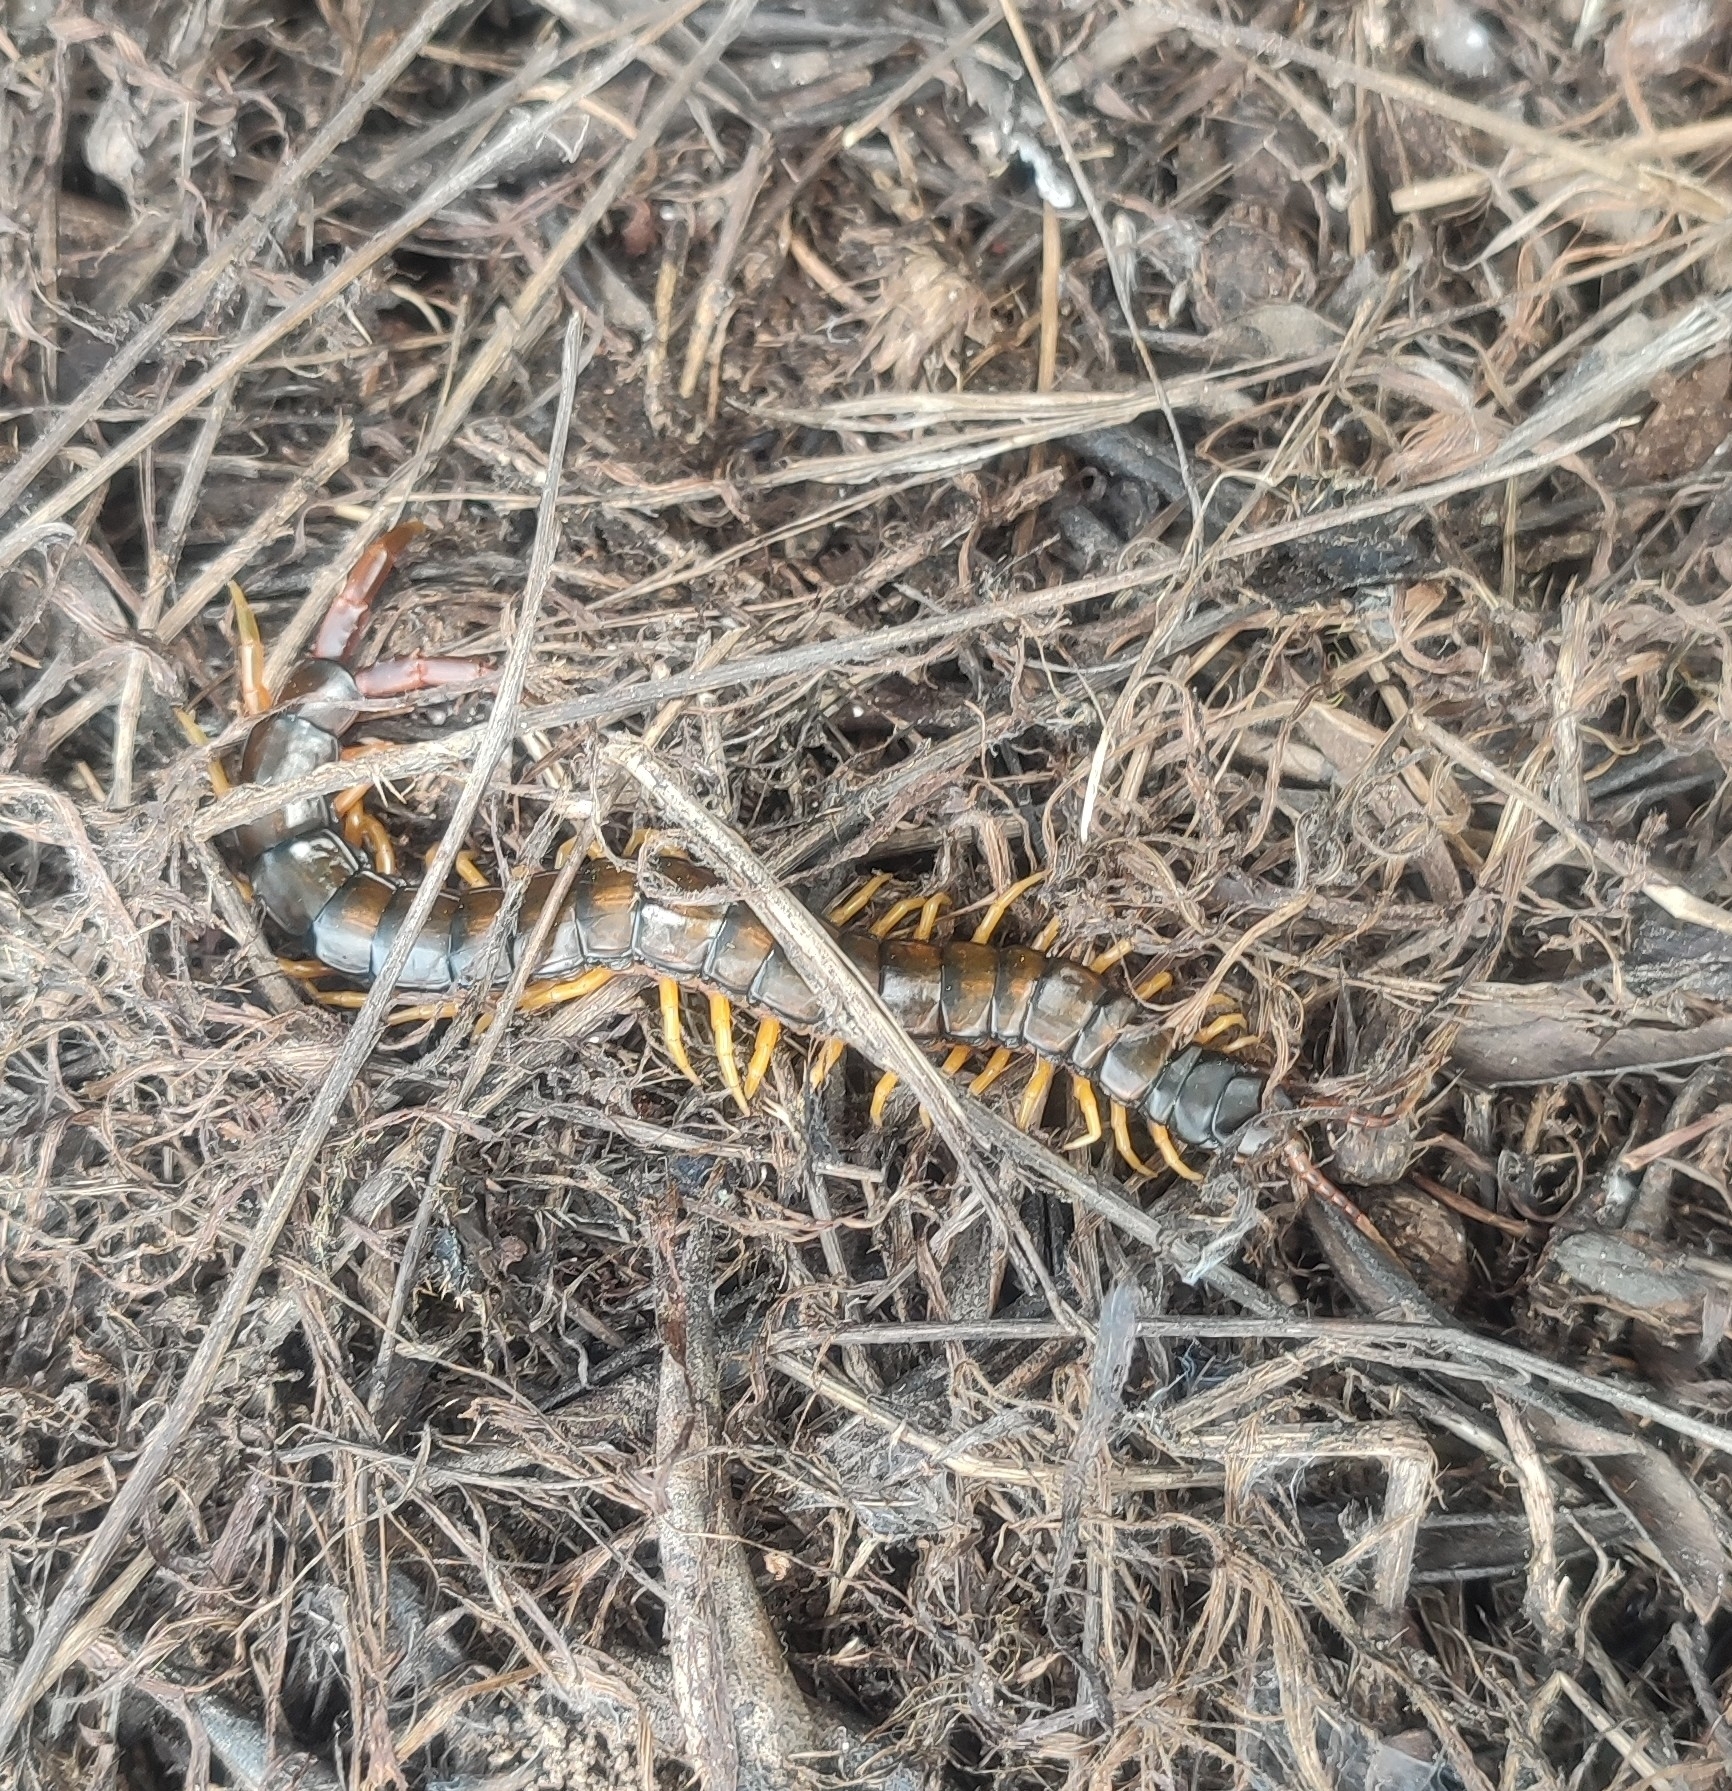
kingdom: Animalia
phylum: Arthropoda
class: Chilopoda
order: Scolopendromorpha
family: Scolopendridae
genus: Scolopendra
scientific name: Scolopendra cingulata
